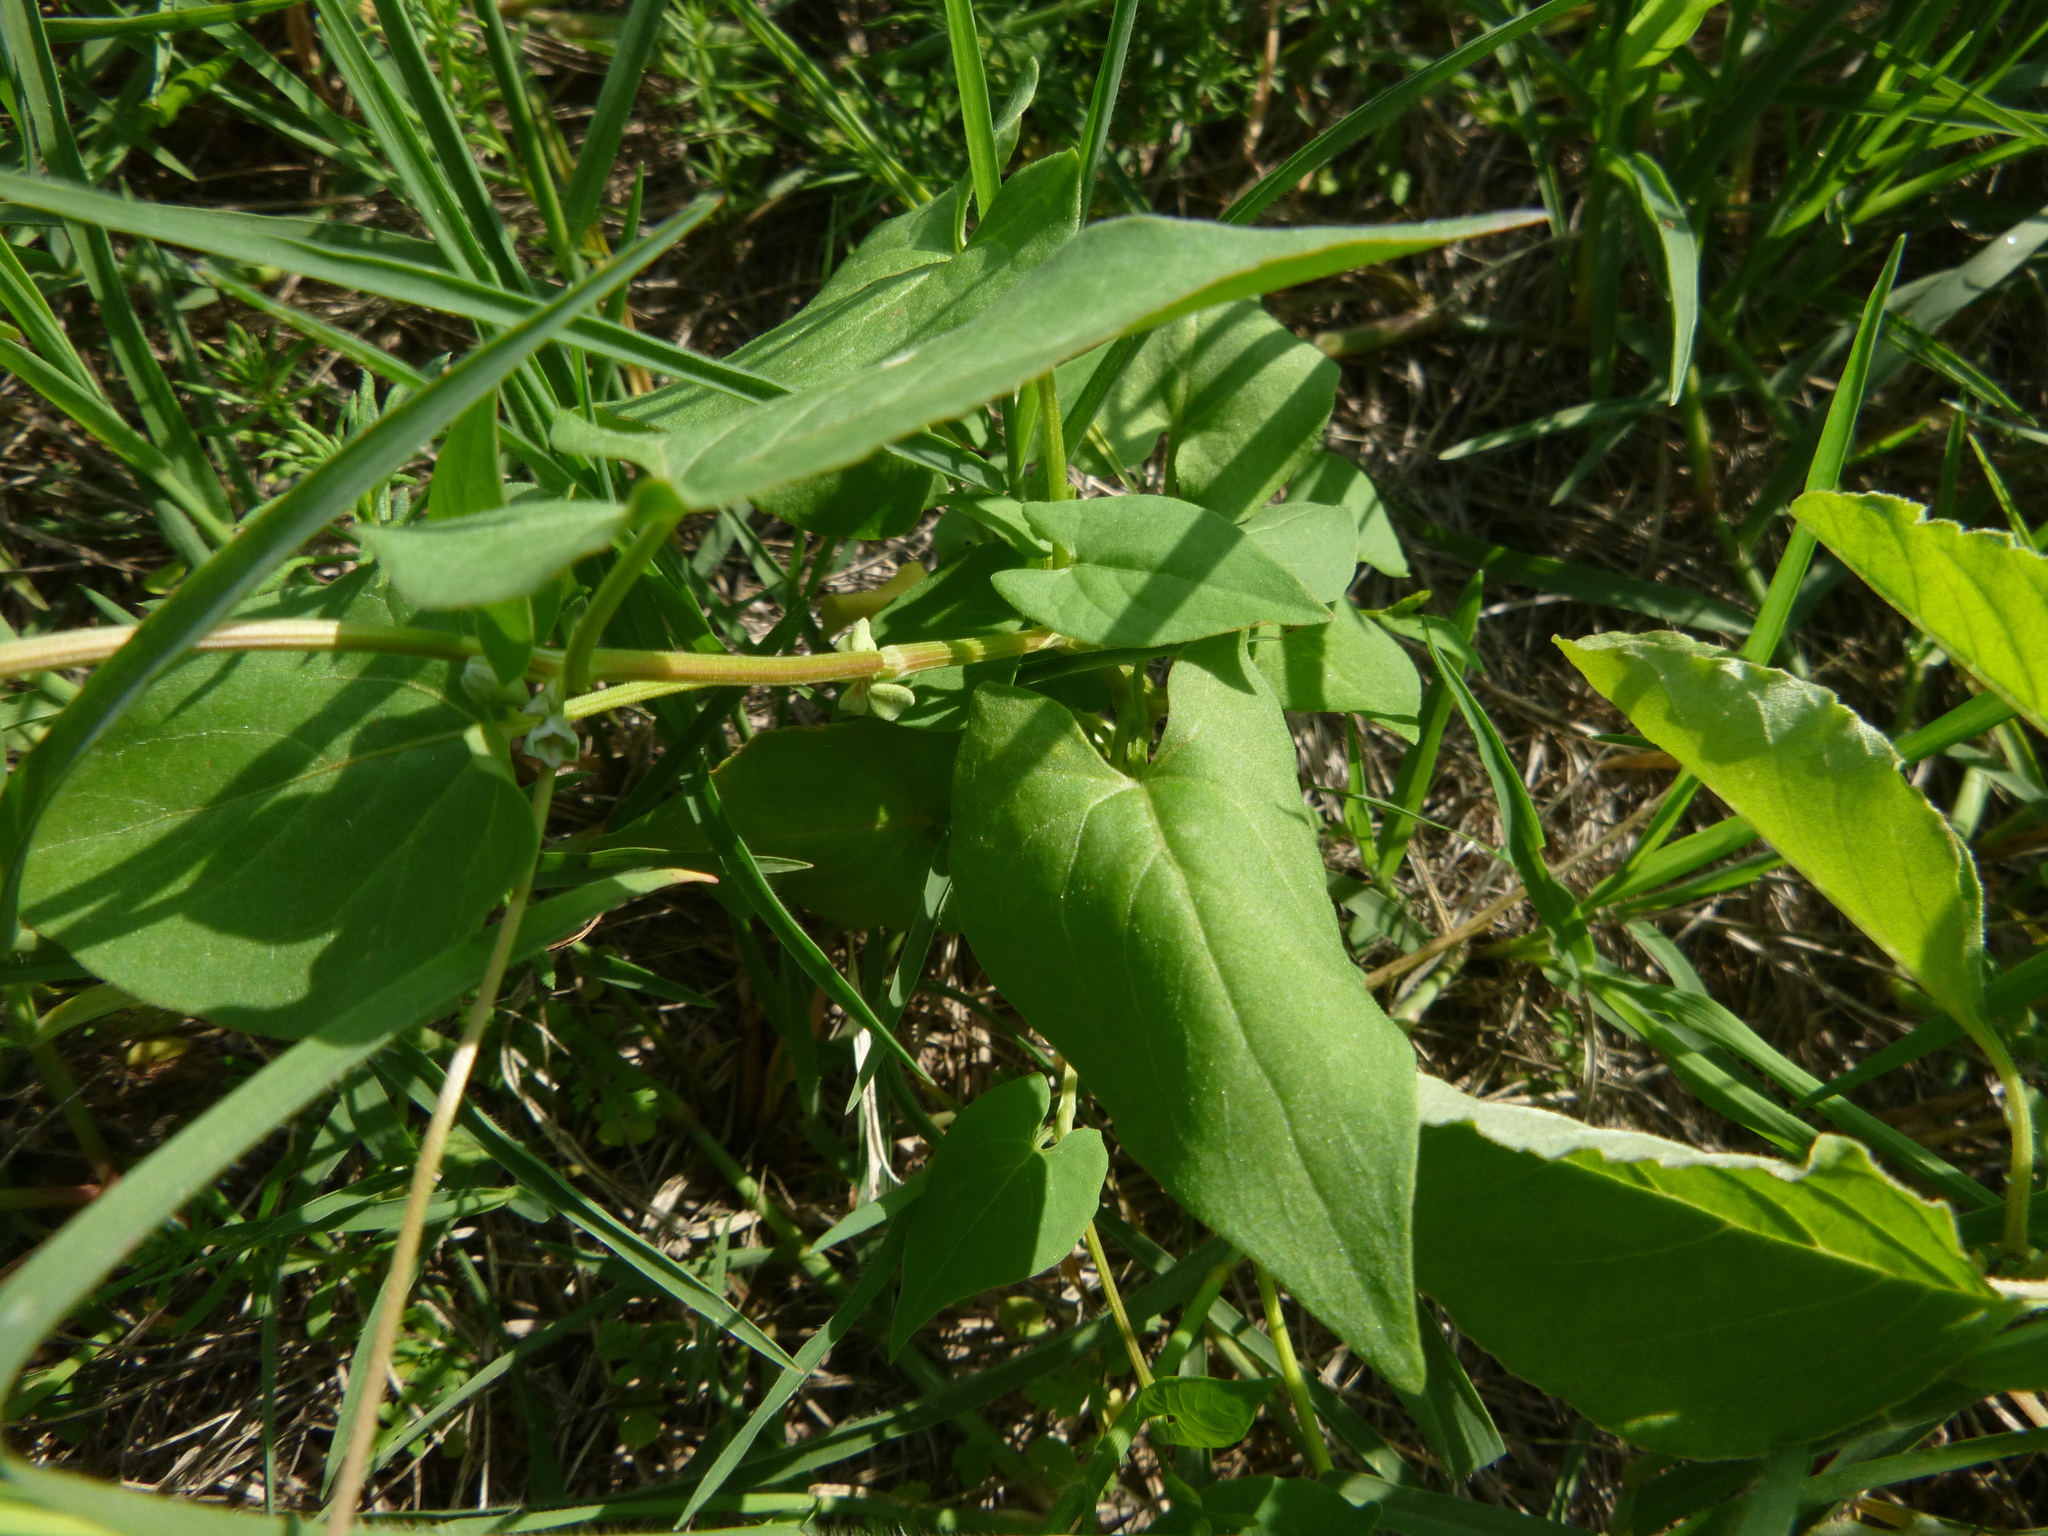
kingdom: Plantae
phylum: Tracheophyta
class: Magnoliopsida
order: Caryophyllales
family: Polygonaceae
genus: Fallopia
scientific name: Fallopia convolvulus
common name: Black bindweed
